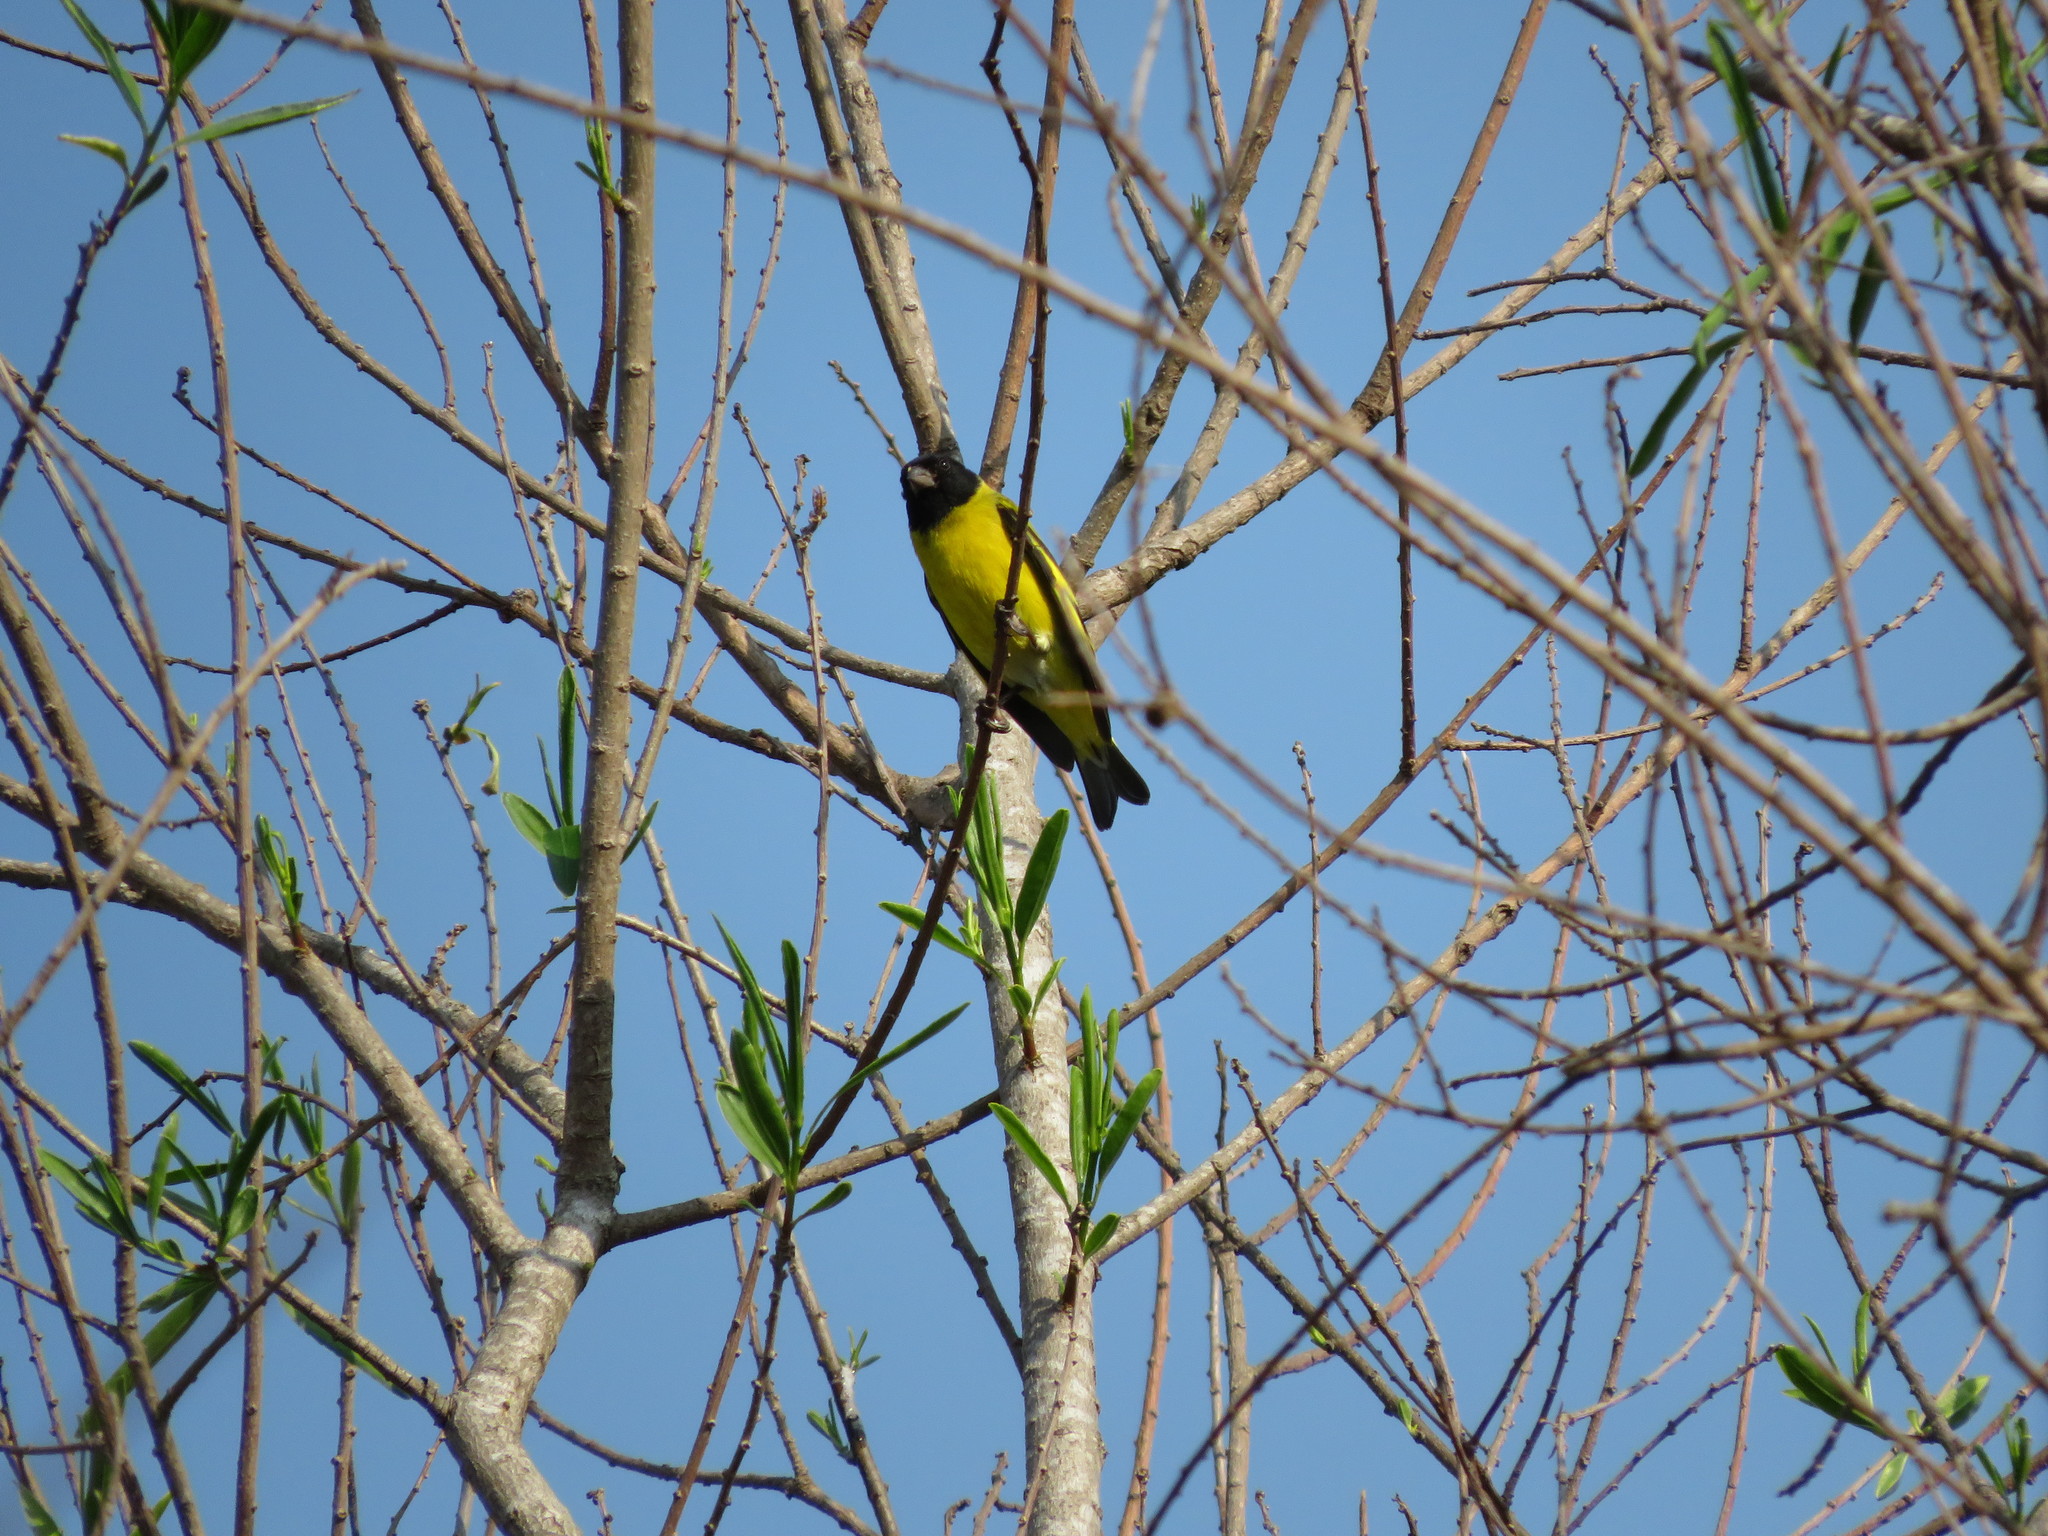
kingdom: Animalia
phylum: Chordata
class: Aves
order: Passeriformes
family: Fringillidae
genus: Spinus
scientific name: Spinus magellanicus
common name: Hooded siskin
